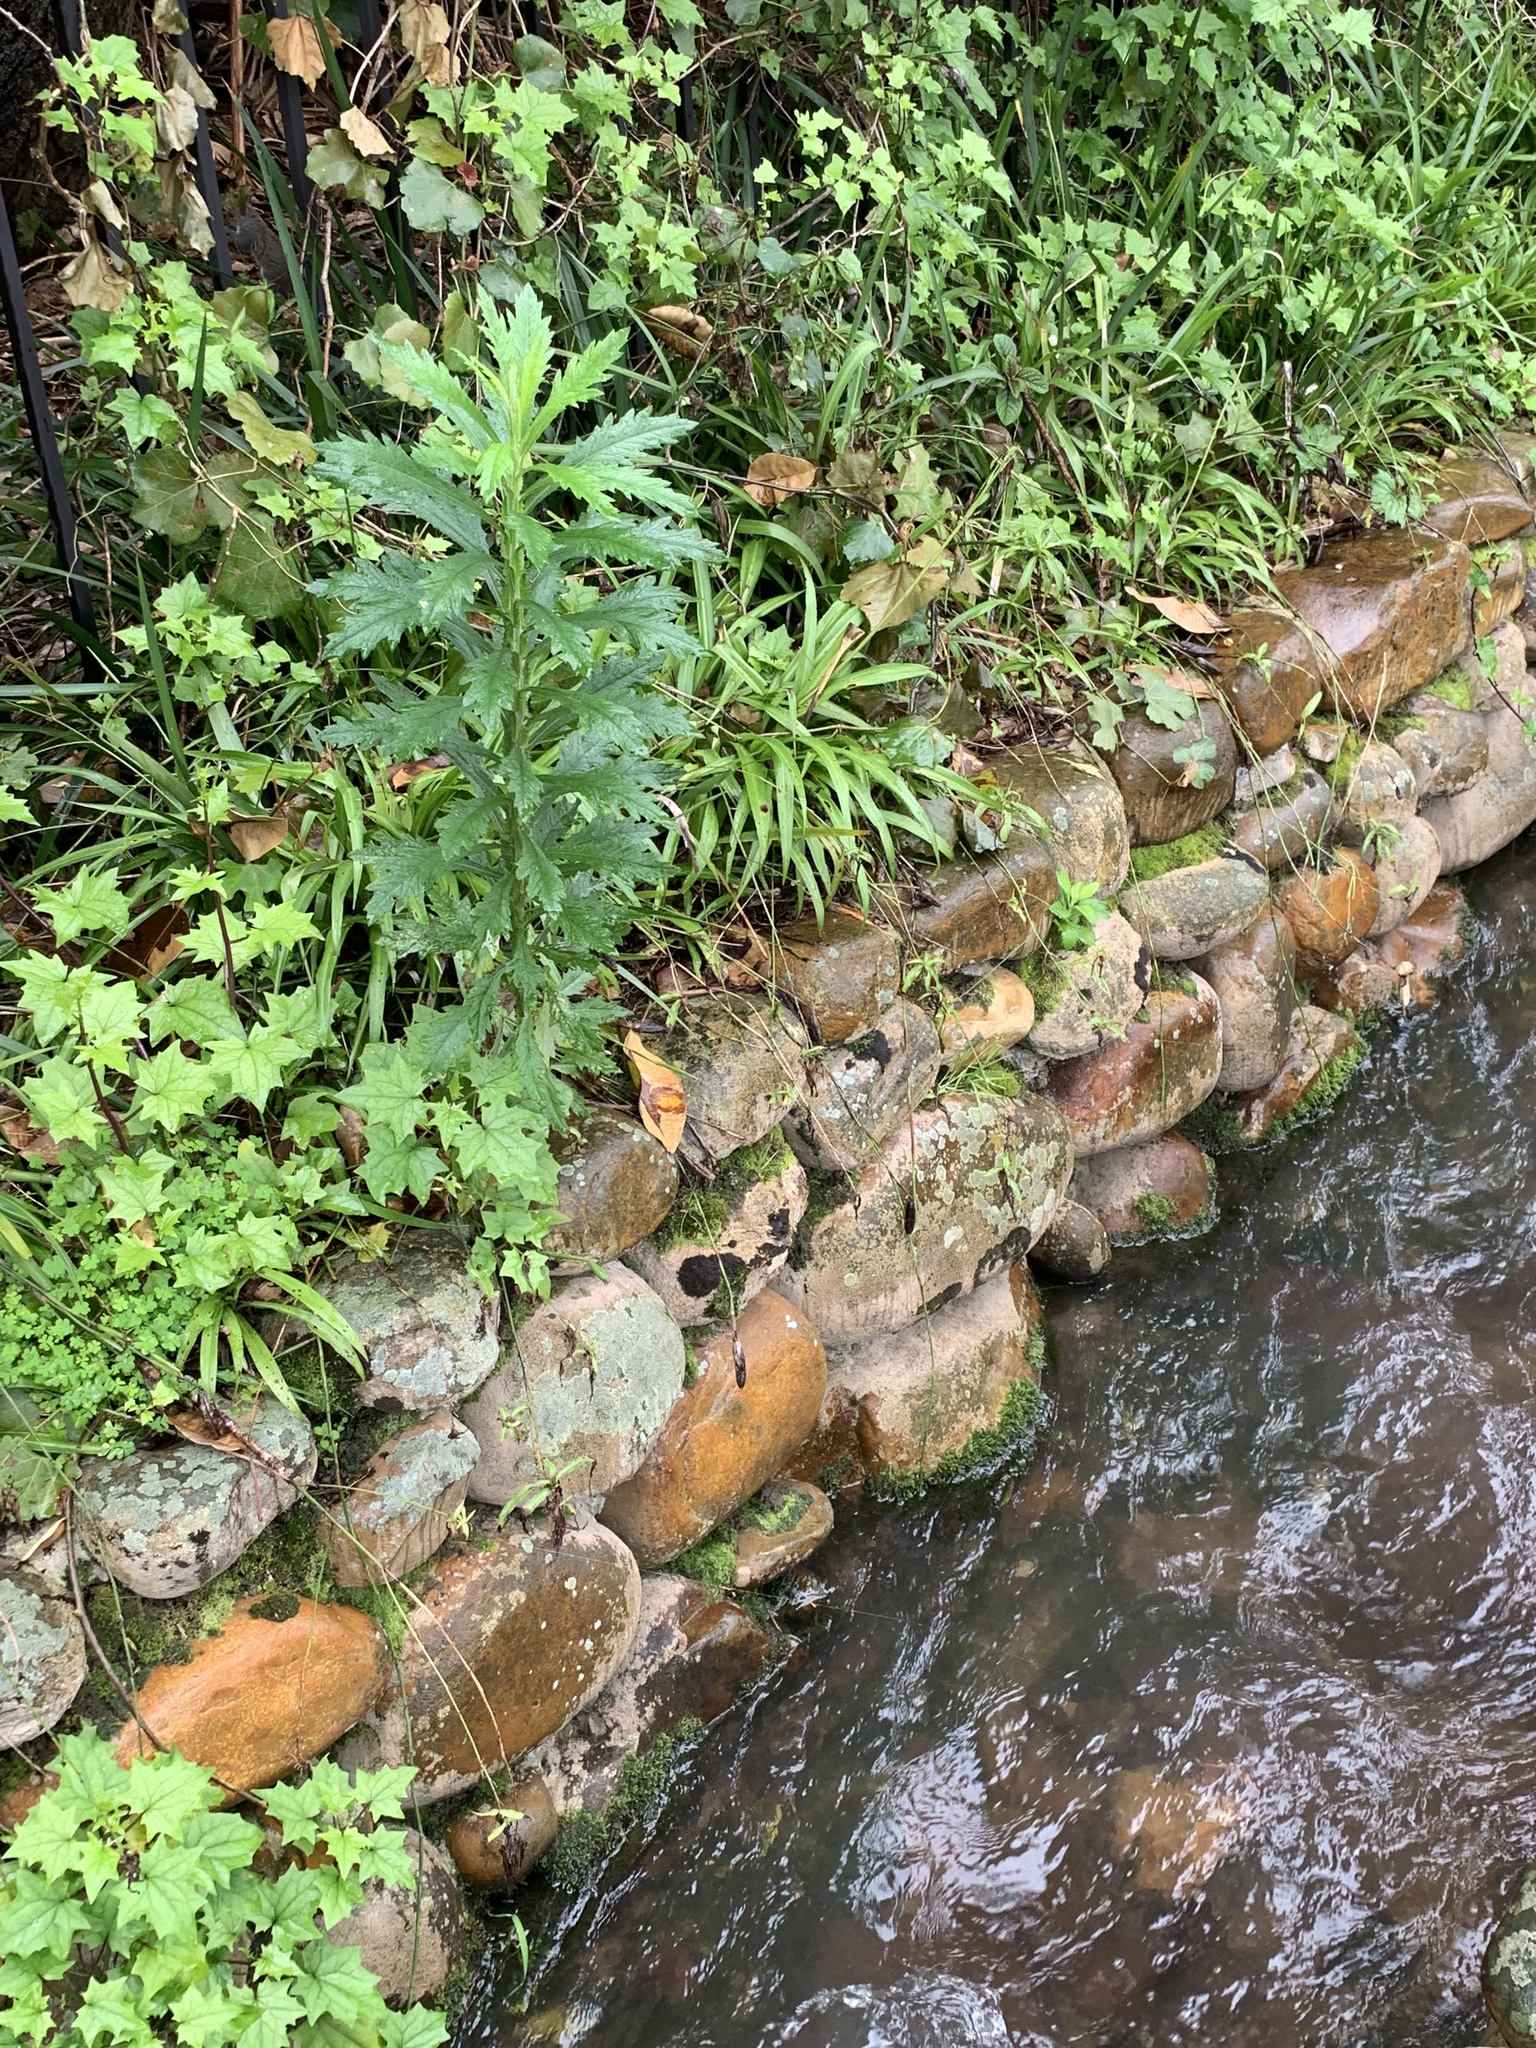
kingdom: Plantae
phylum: Tracheophyta
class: Magnoliopsida
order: Asterales
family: Asteraceae
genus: Senecio
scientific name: Senecio pterophorus
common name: Shoddy ragwort
